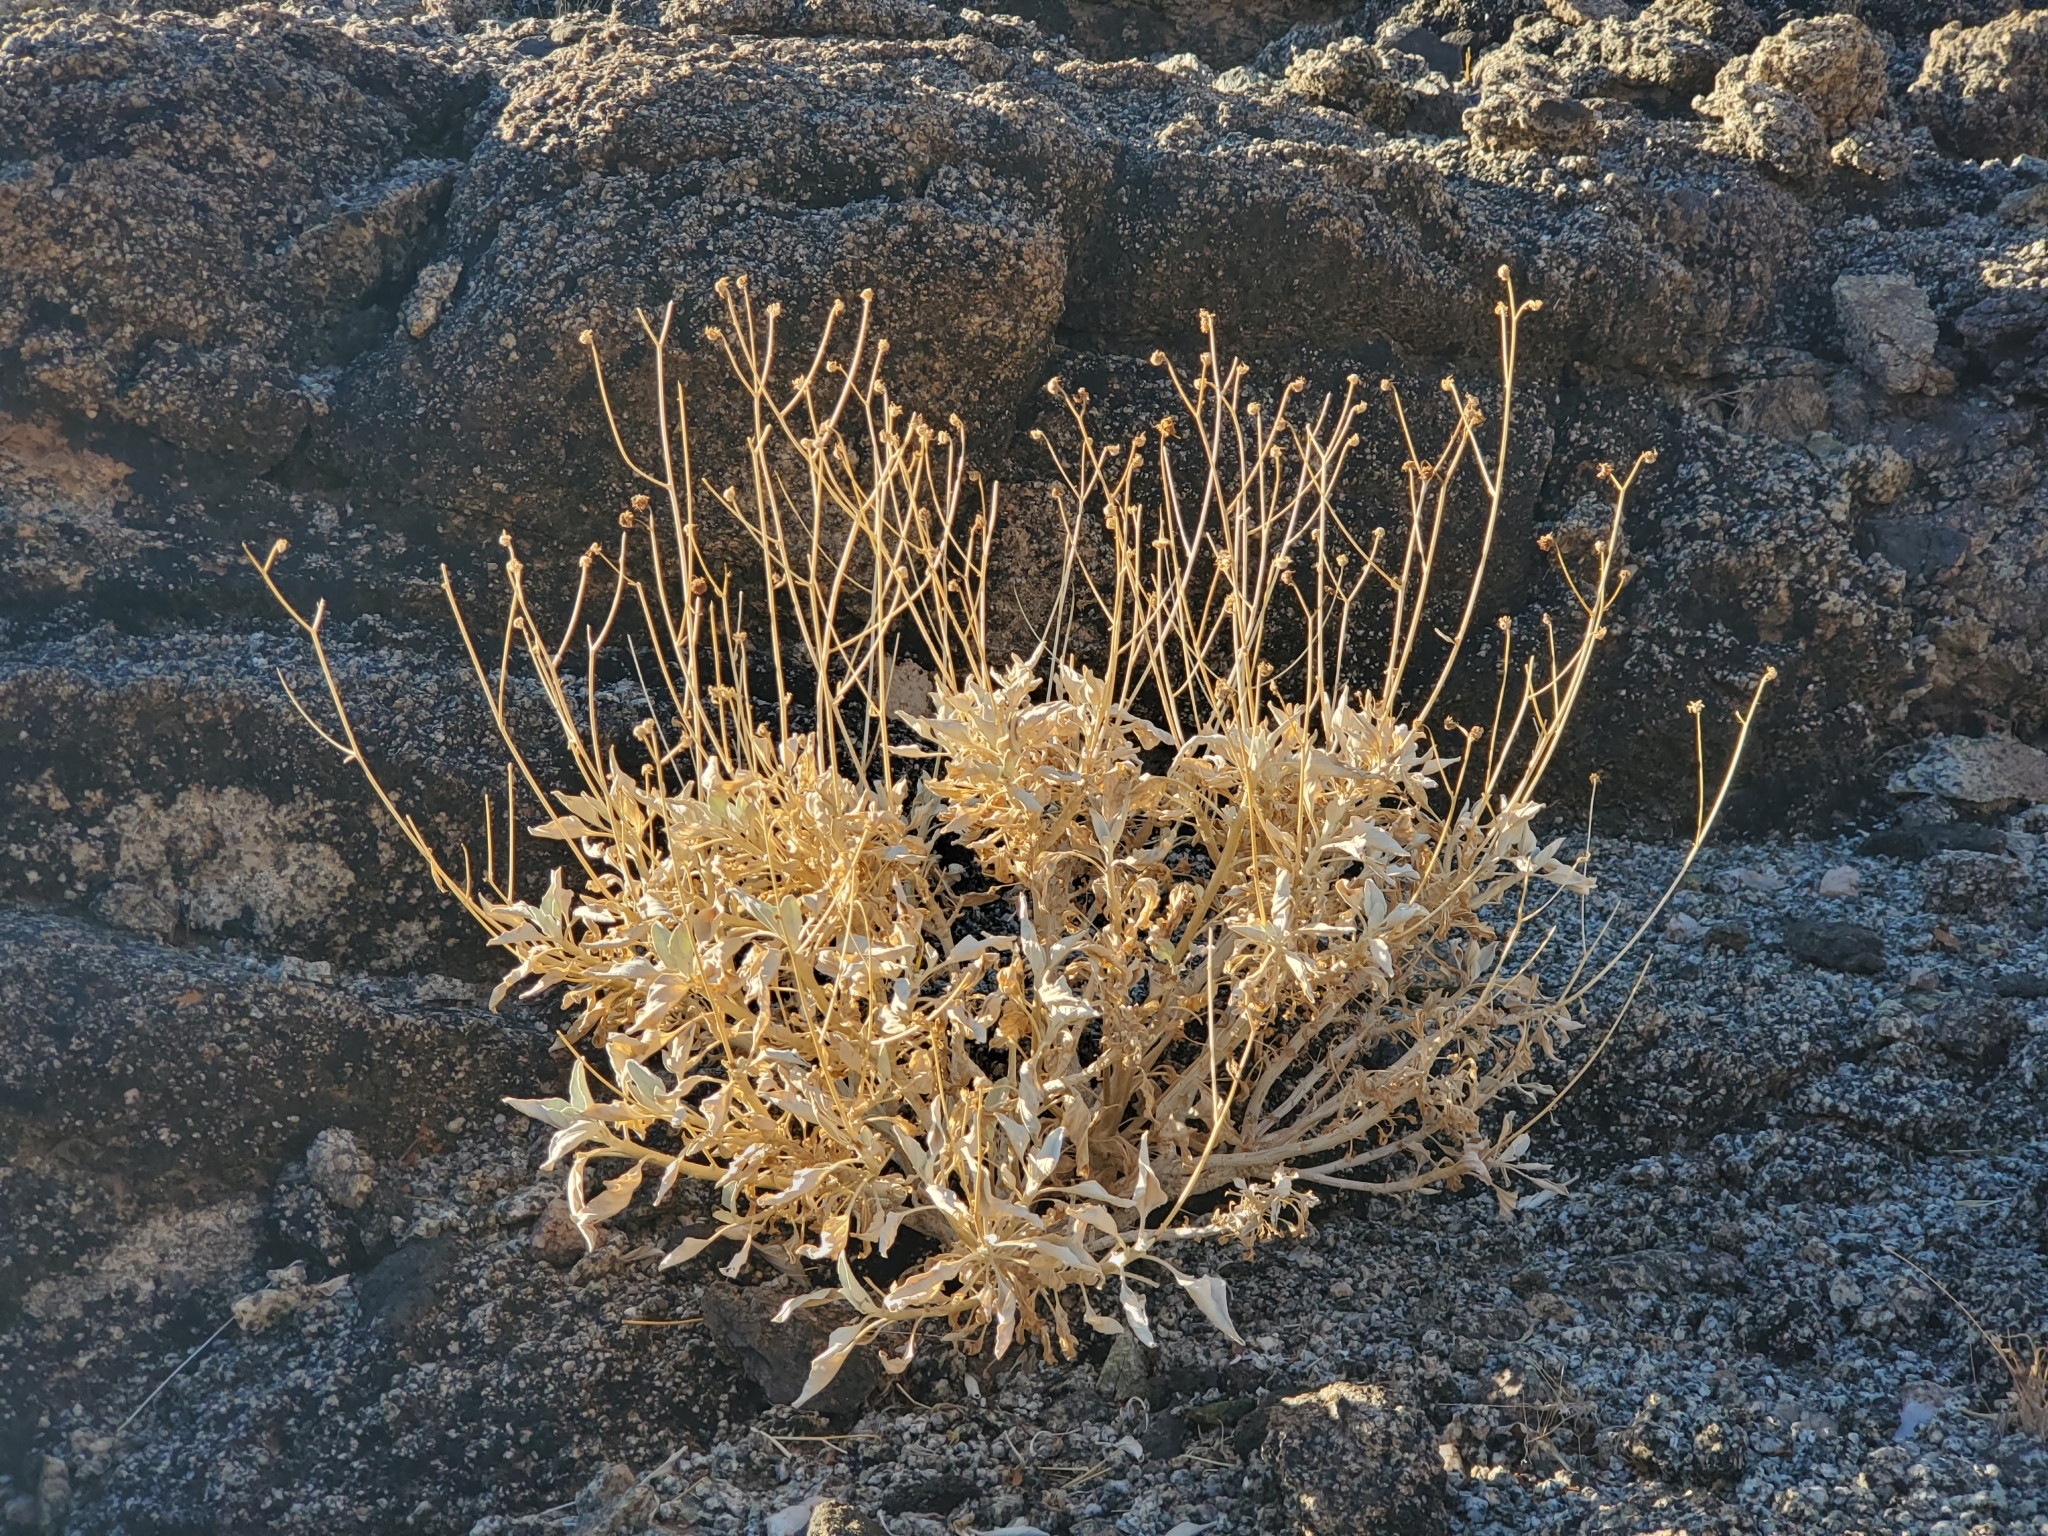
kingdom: Plantae
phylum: Tracheophyta
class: Magnoliopsida
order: Asterales
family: Asteraceae
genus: Encelia
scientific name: Encelia farinosa
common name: Brittlebush
